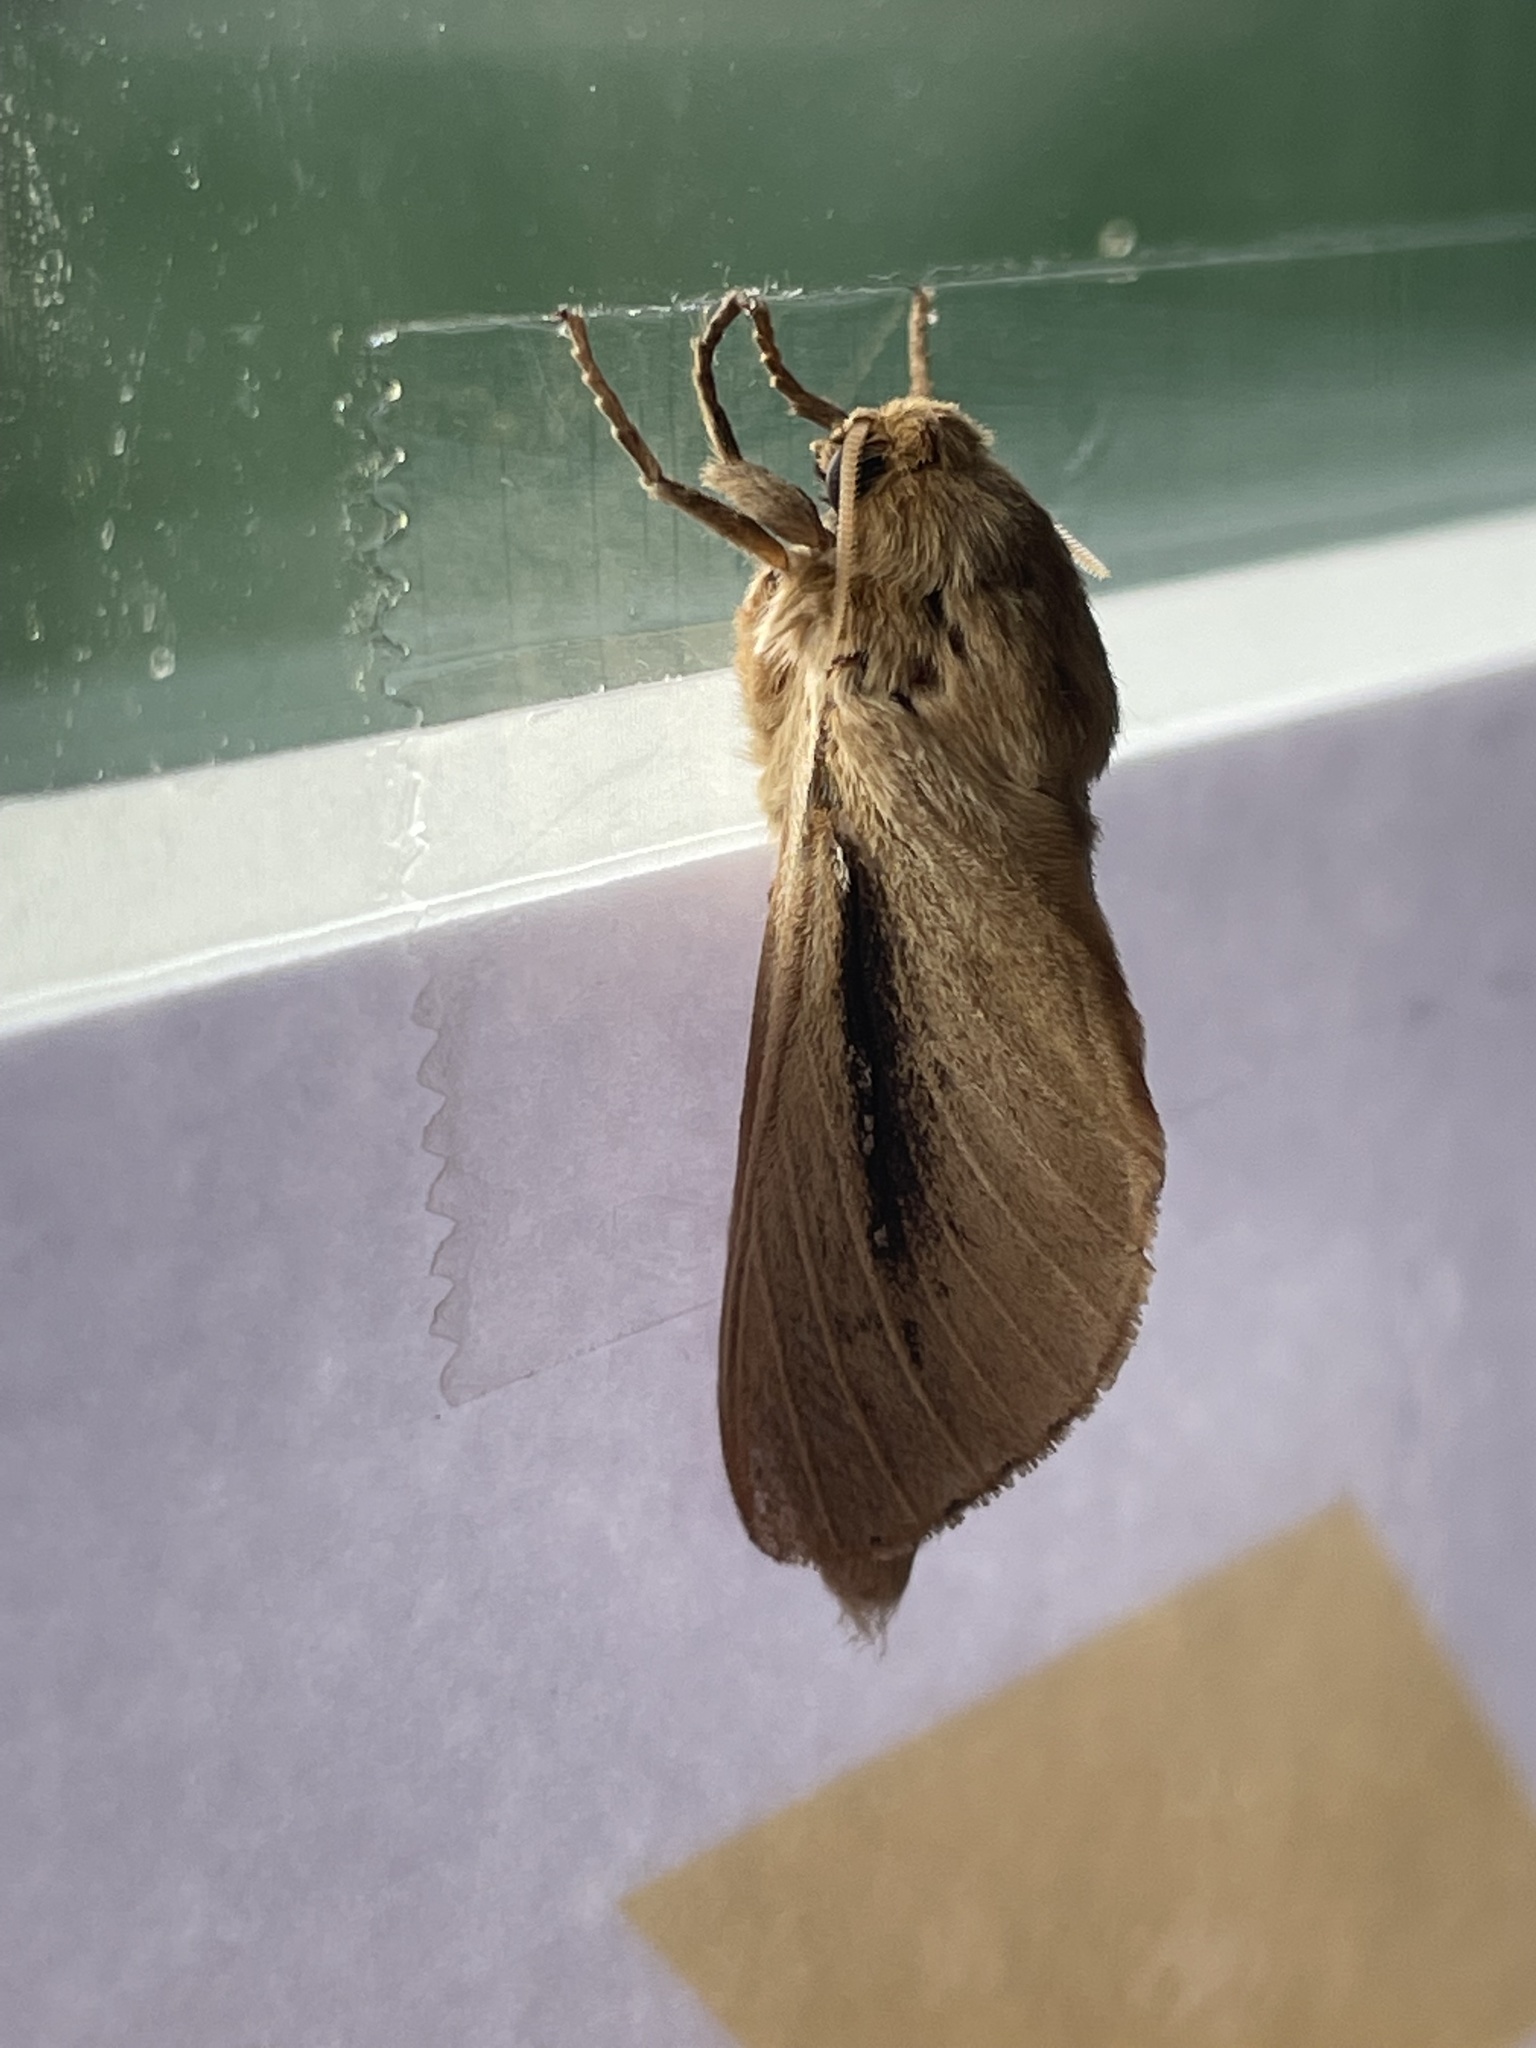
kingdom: Animalia
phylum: Arthropoda
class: Insecta
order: Lepidoptera
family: Hepialidae
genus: Wiseana
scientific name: Wiseana umbraculatus
